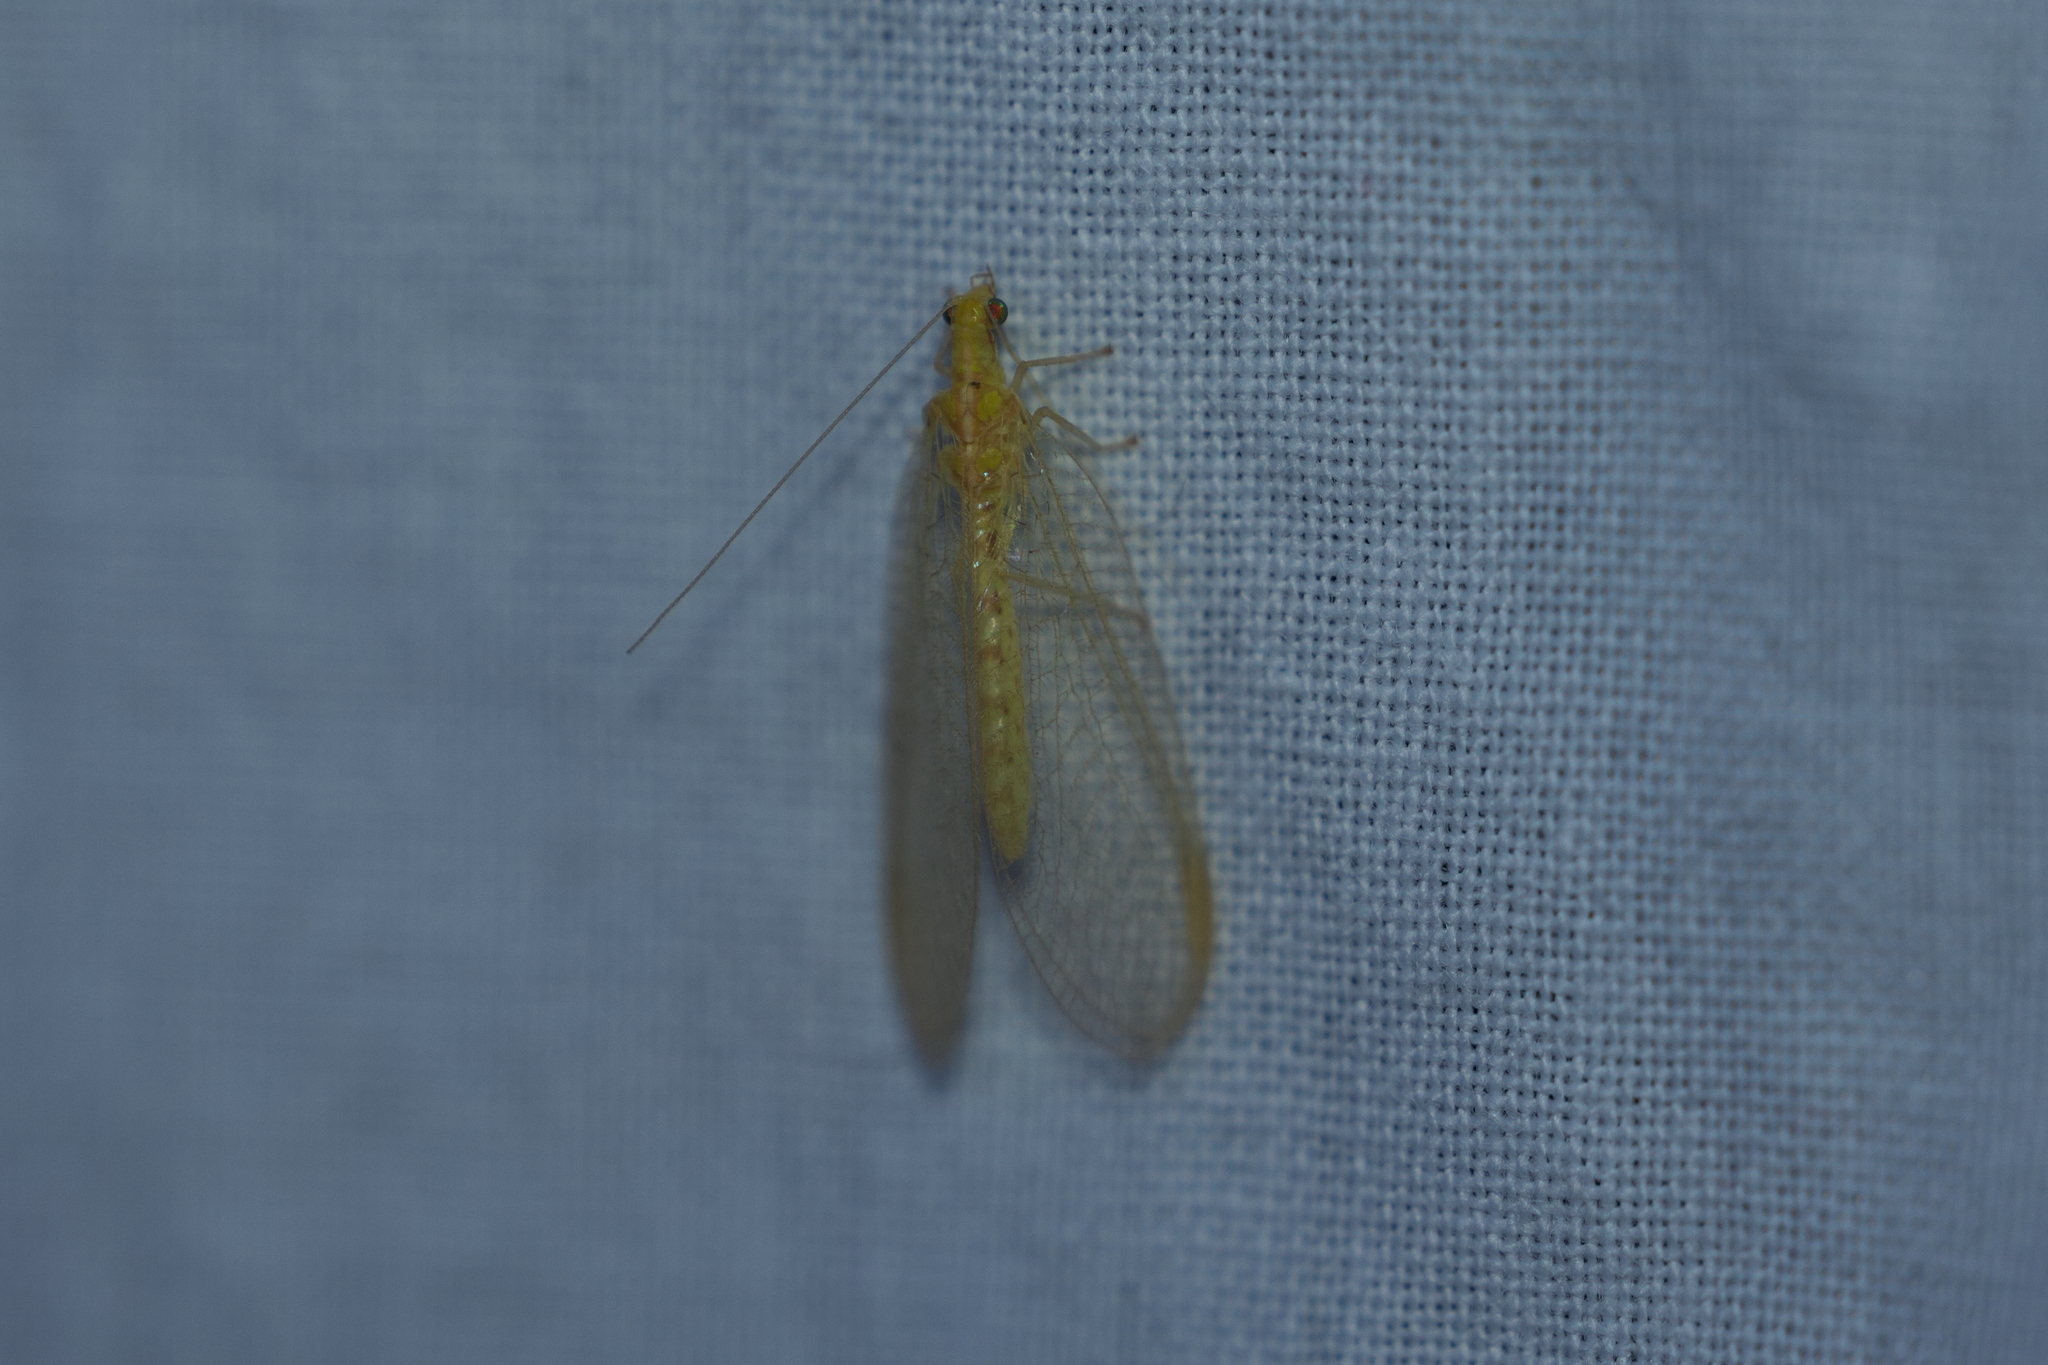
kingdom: Animalia
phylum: Arthropoda
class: Insecta
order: Neuroptera
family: Chrysopidae
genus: Chrysoperla
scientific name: Chrysoperla
